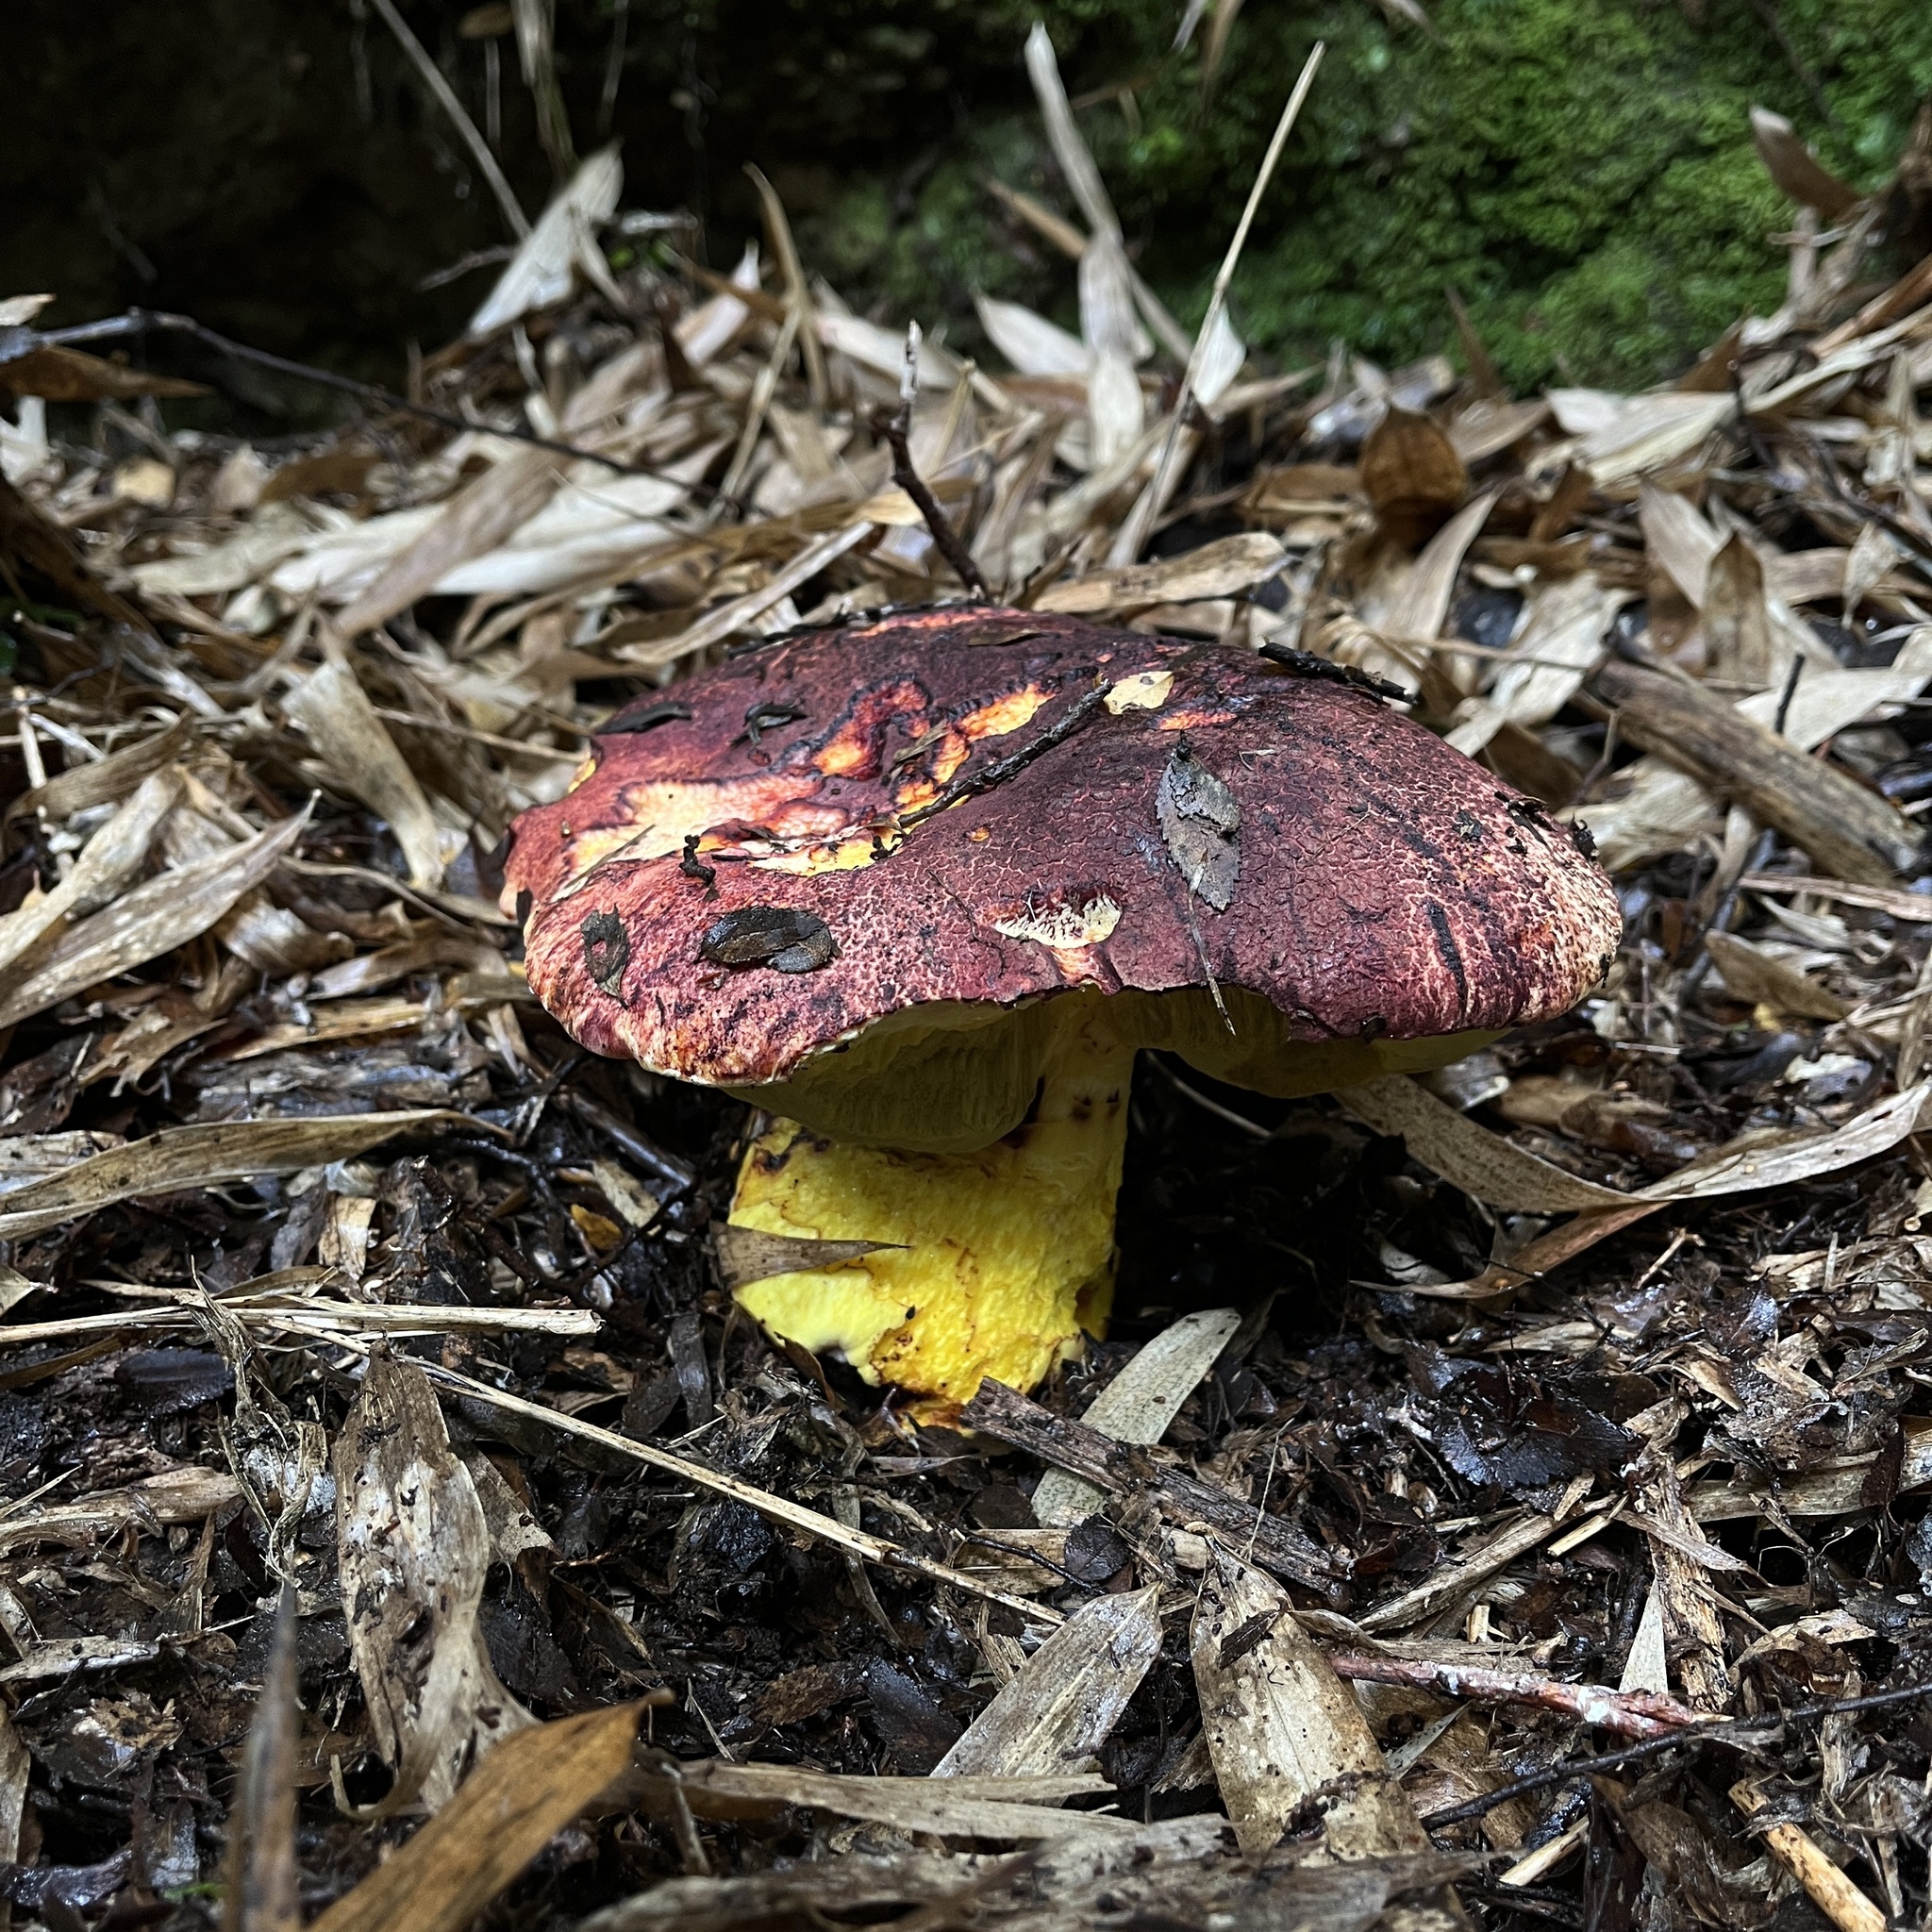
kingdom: Fungi
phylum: Basidiomycota
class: Agaricomycetes
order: Boletales
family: Boletaceae
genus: Butyriboletus
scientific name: Butyriboletus loyo
